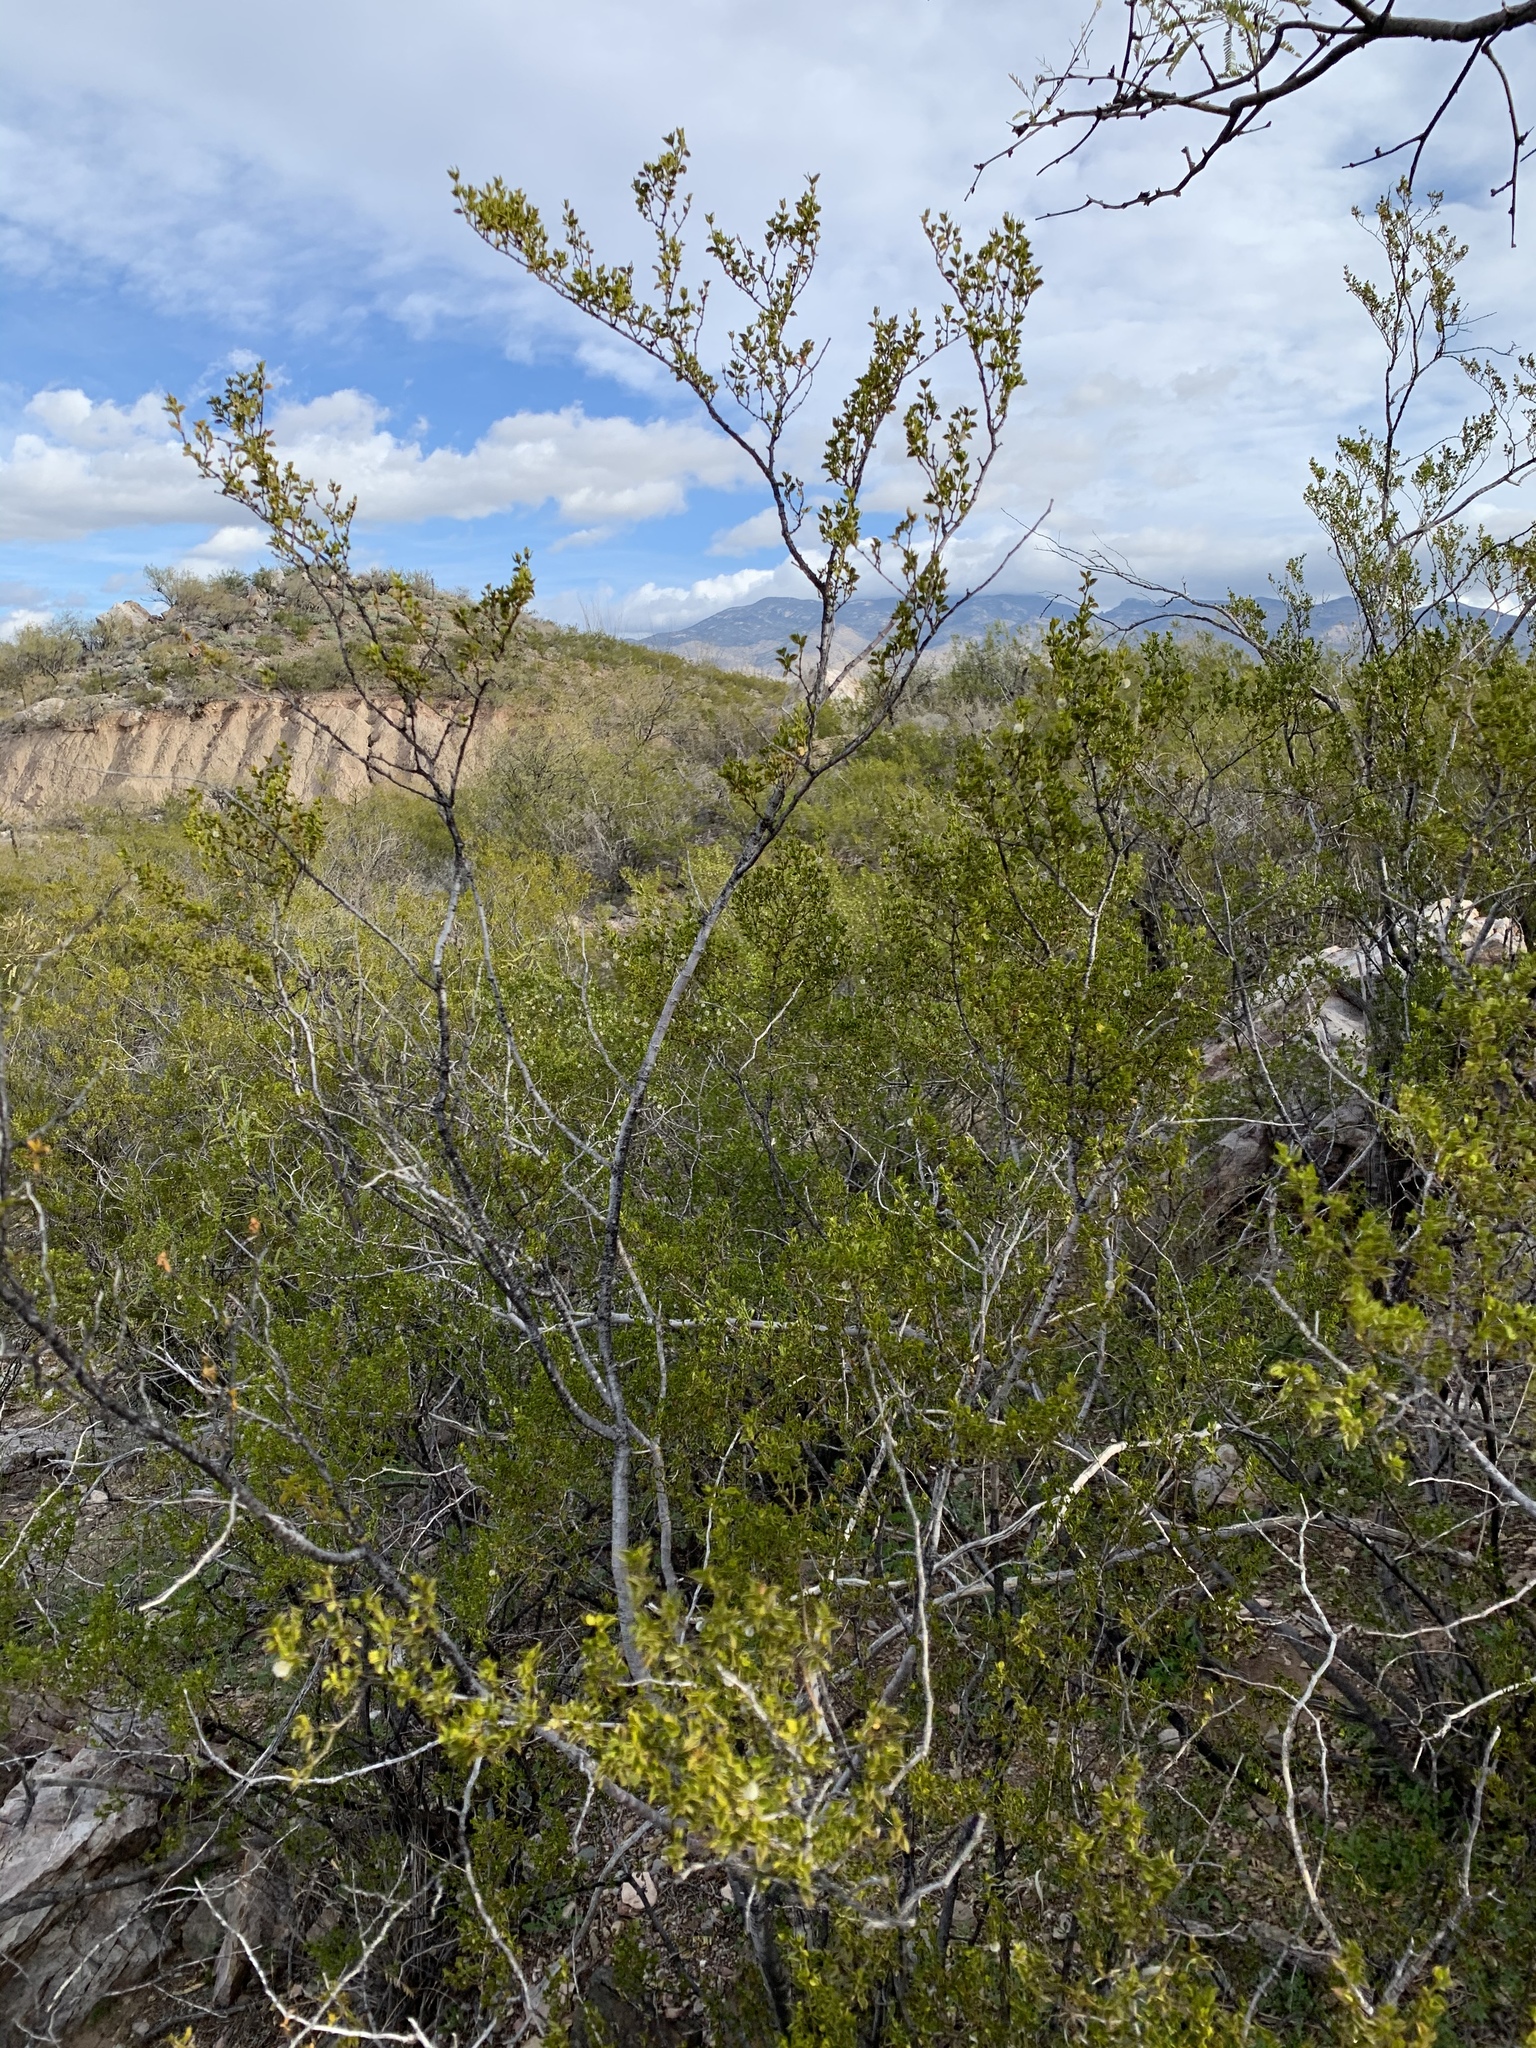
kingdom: Plantae
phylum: Tracheophyta
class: Magnoliopsida
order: Zygophyllales
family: Zygophyllaceae
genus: Larrea
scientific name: Larrea tridentata
